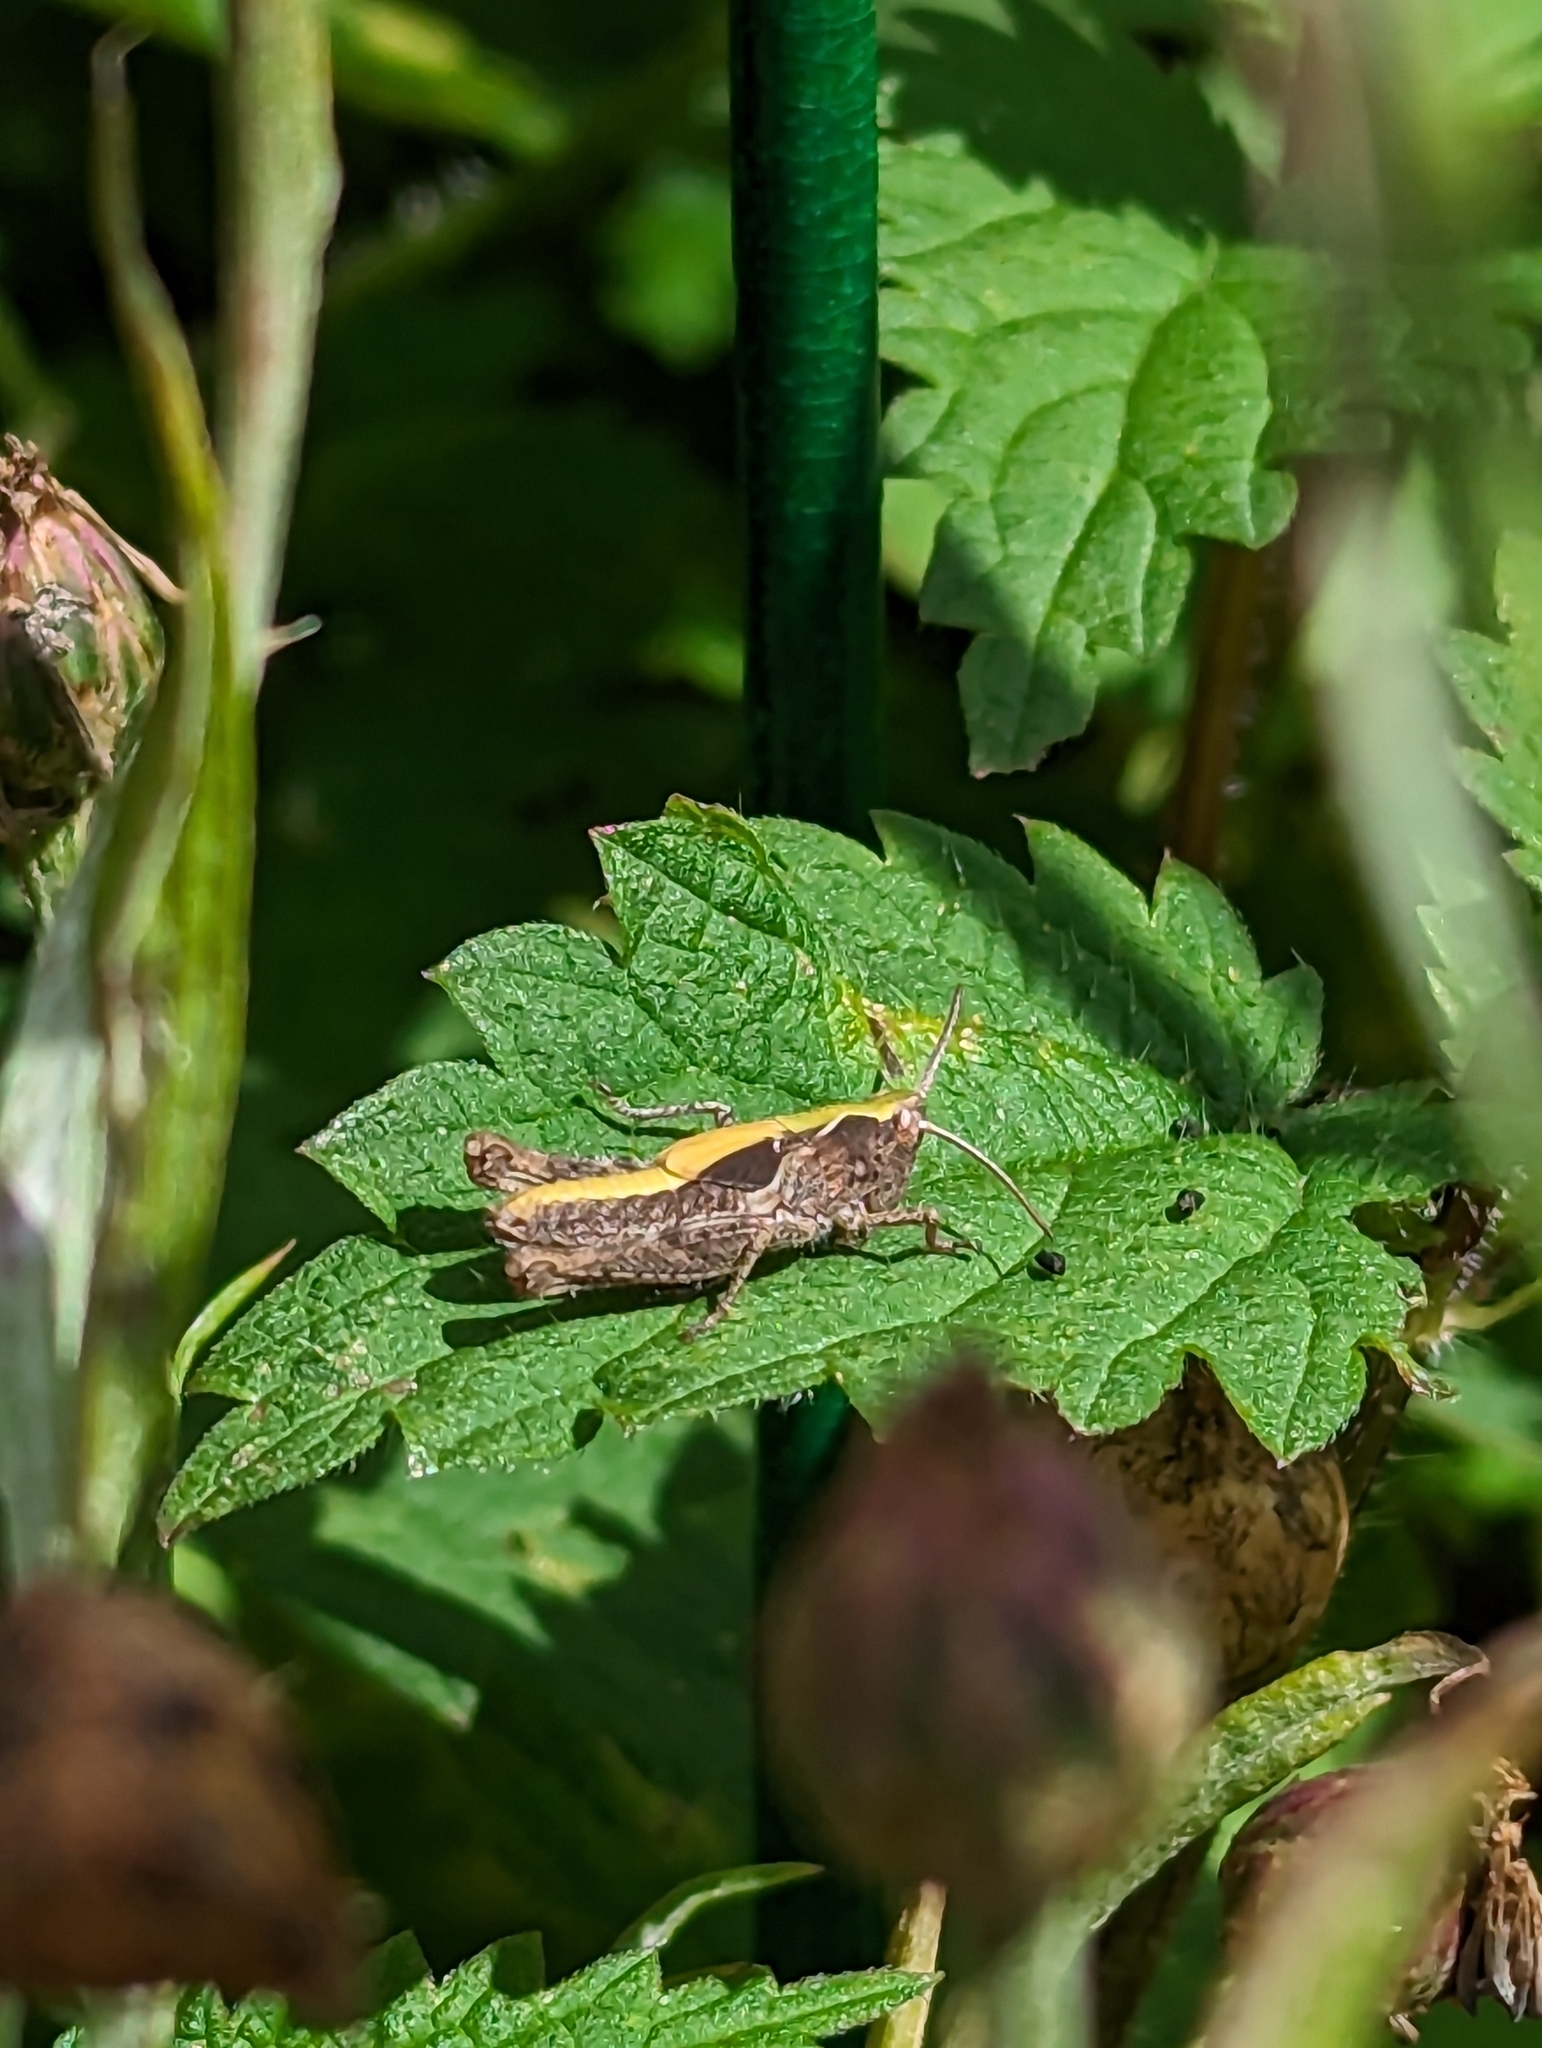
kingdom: Animalia
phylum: Arthropoda
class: Insecta
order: Orthoptera
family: Acrididae
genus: Chorthippus
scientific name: Chorthippus brunneus
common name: Field grasshopper
